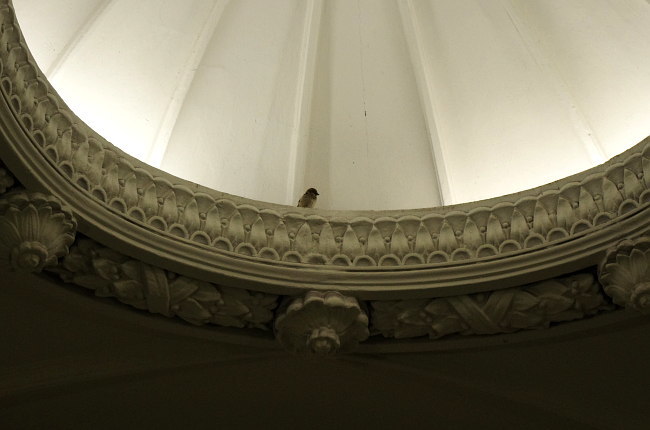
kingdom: Animalia
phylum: Chordata
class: Aves
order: Passeriformes
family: Passeridae
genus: Passer
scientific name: Passer domesticus
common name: House sparrow
